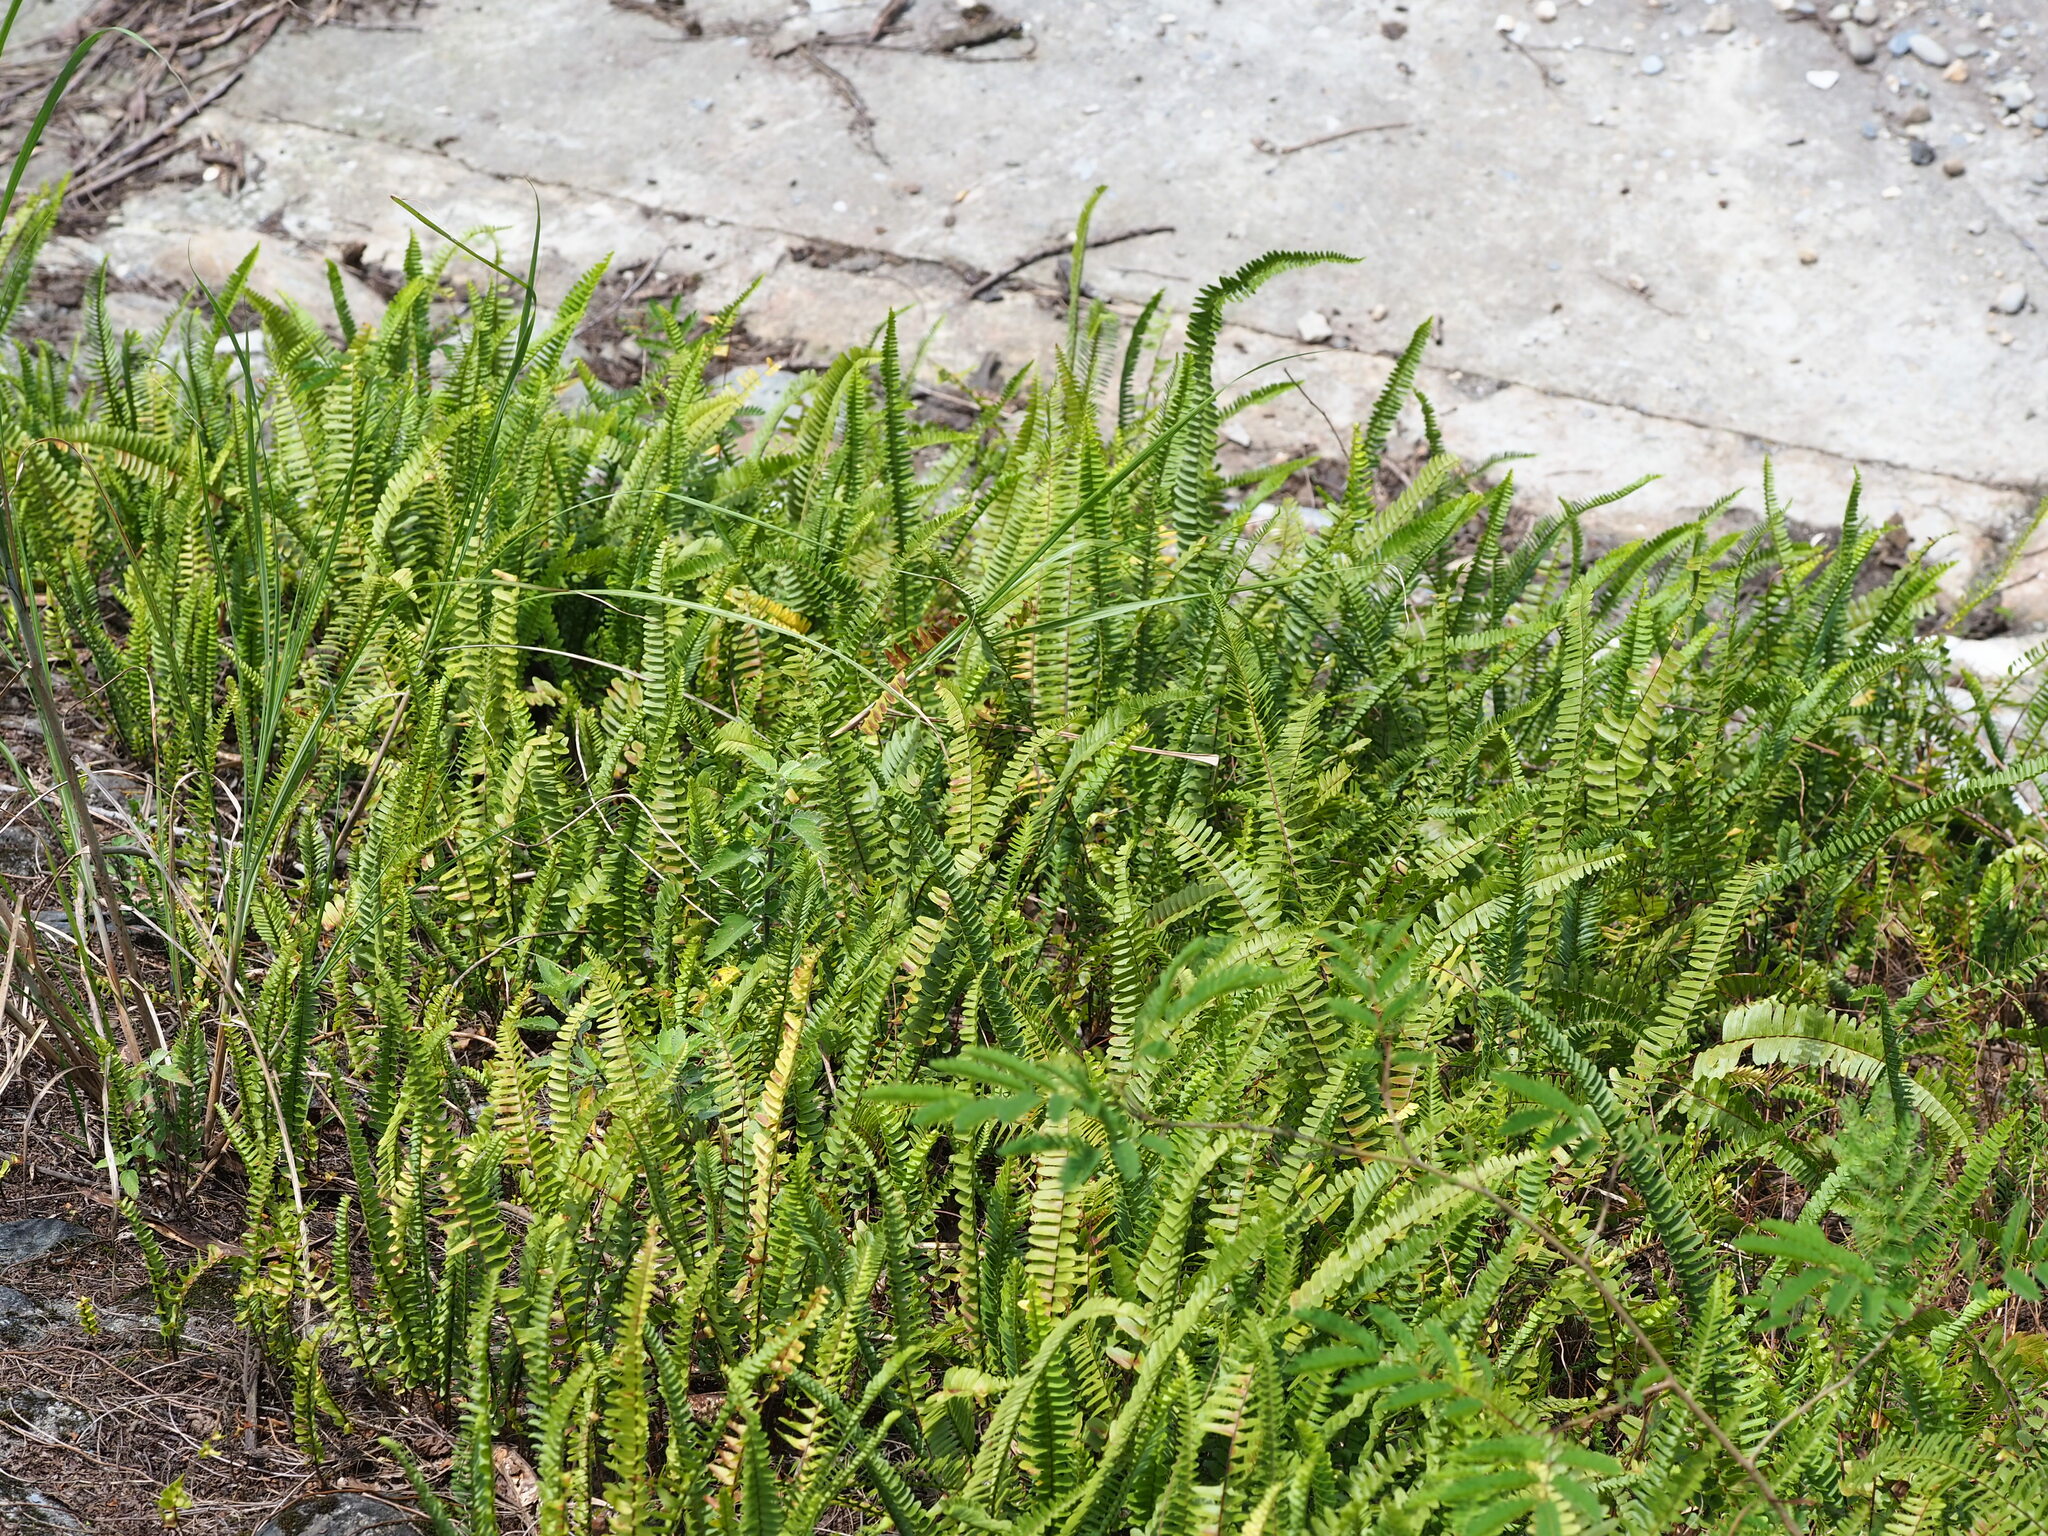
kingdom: Plantae
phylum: Tracheophyta
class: Polypodiopsida
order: Polypodiales
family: Nephrolepidaceae
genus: Nephrolepis
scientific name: Nephrolepis cordifolia
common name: Narrow swordfern
